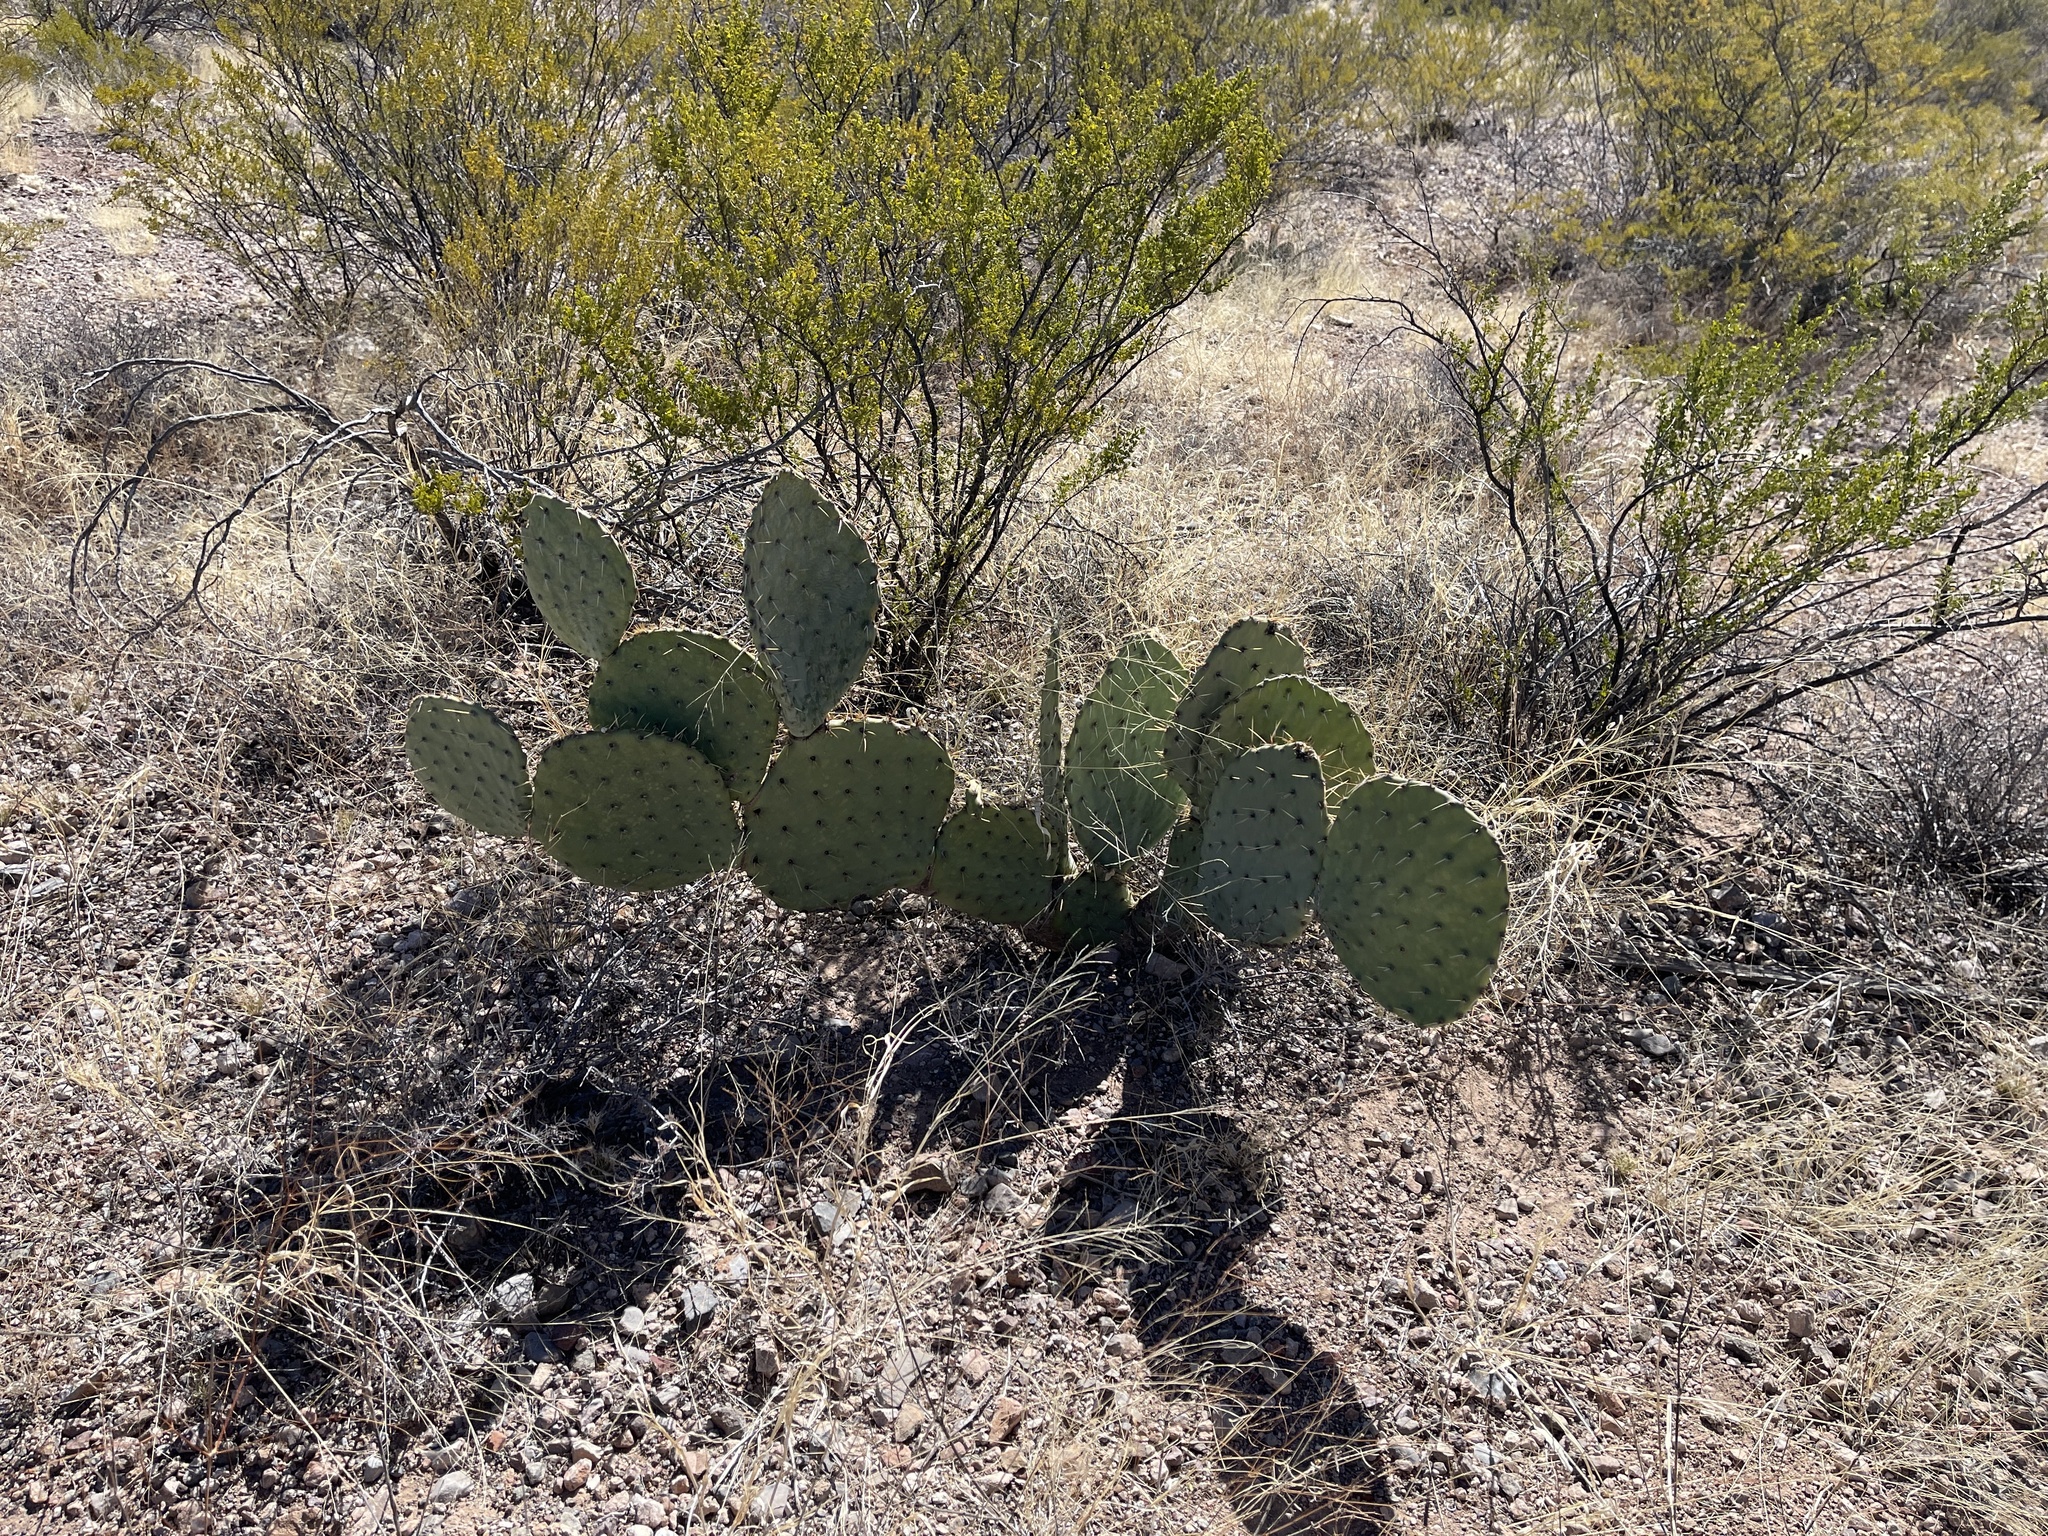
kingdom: Plantae
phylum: Tracheophyta
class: Magnoliopsida
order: Caryophyllales
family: Cactaceae
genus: Opuntia
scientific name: Opuntia engelmannii
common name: Cactus-apple
